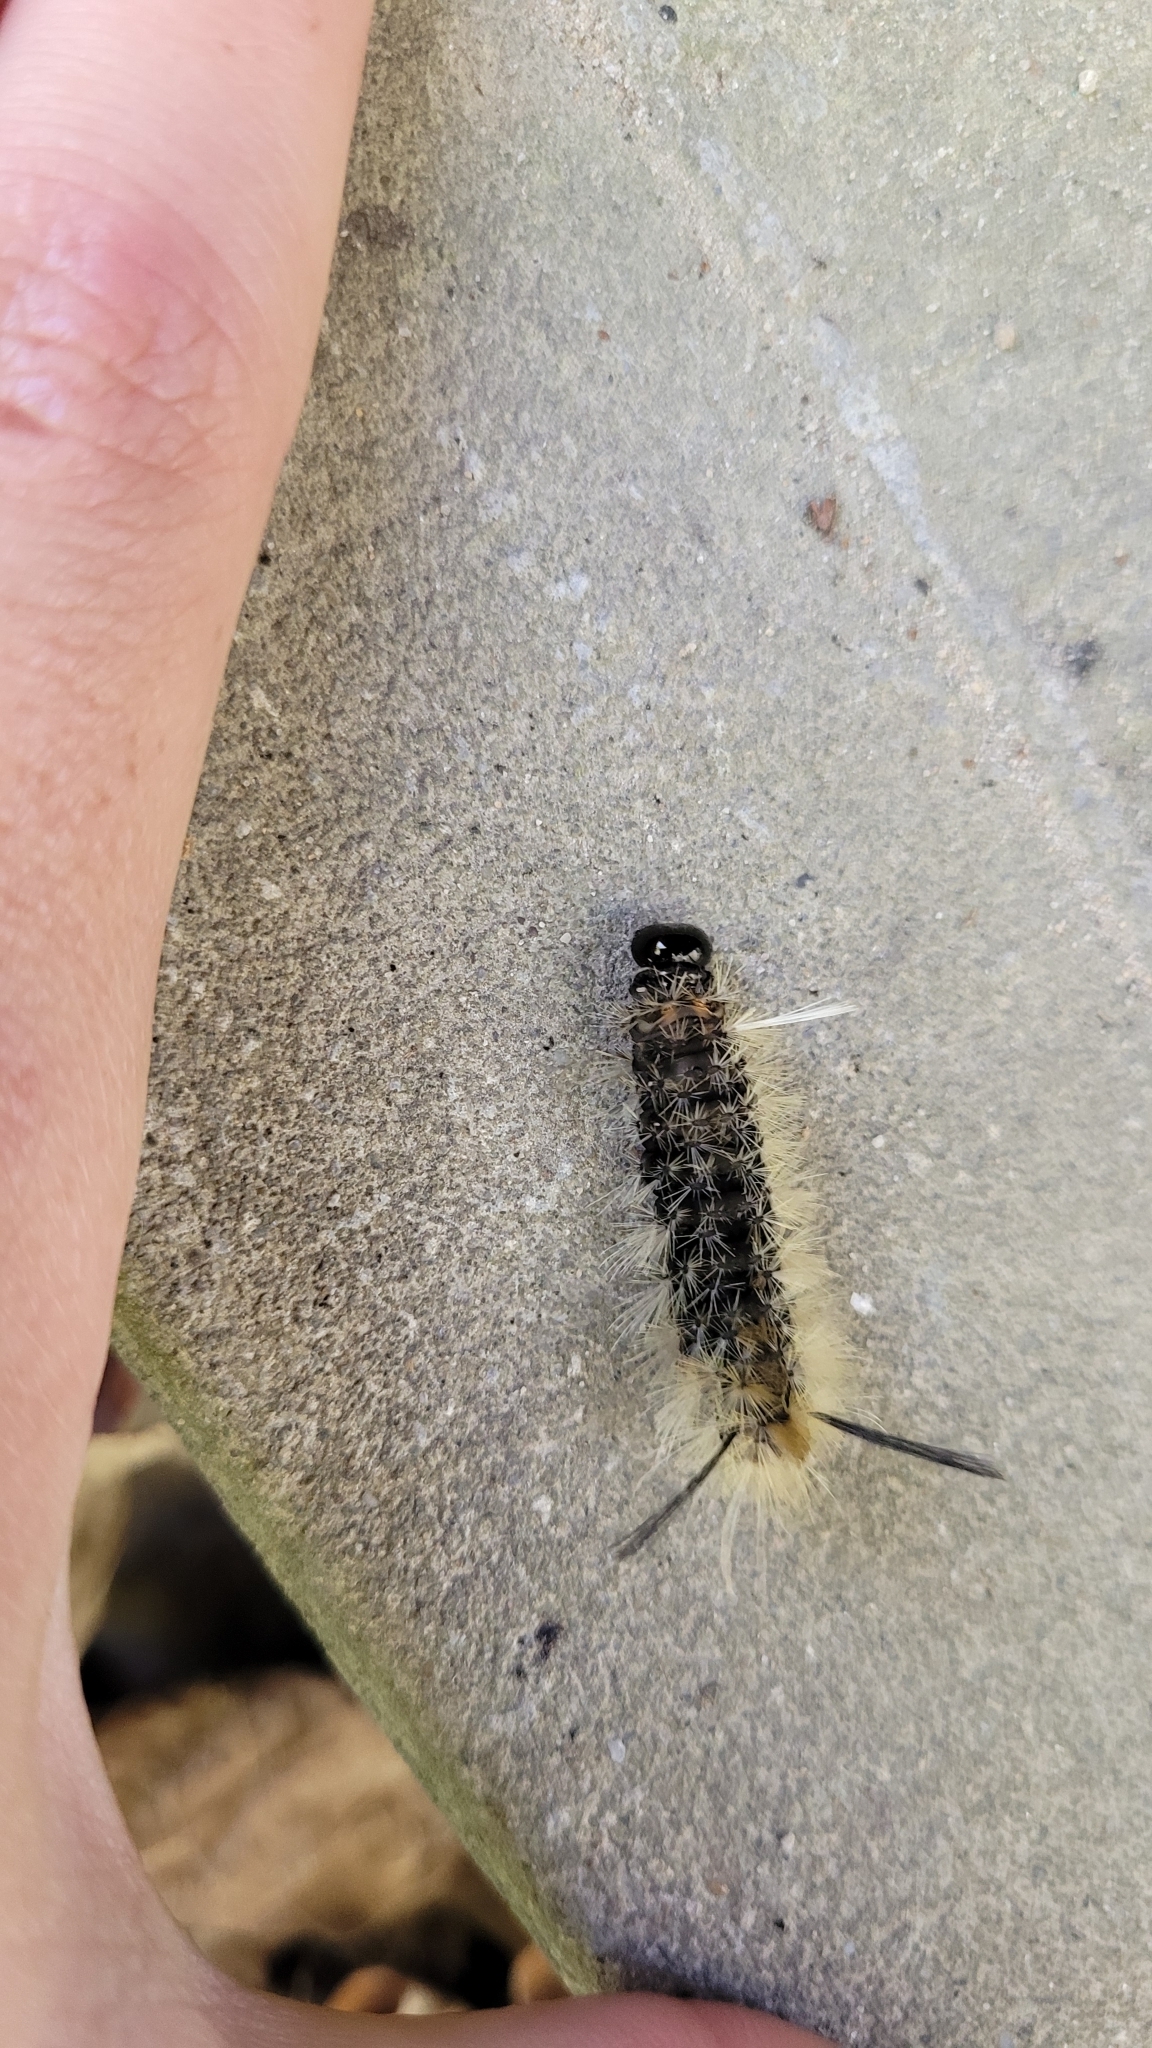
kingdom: Animalia
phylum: Arthropoda
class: Insecta
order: Lepidoptera
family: Erebidae
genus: Halysidota
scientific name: Halysidota tessellaris
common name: Banded tussock moth
